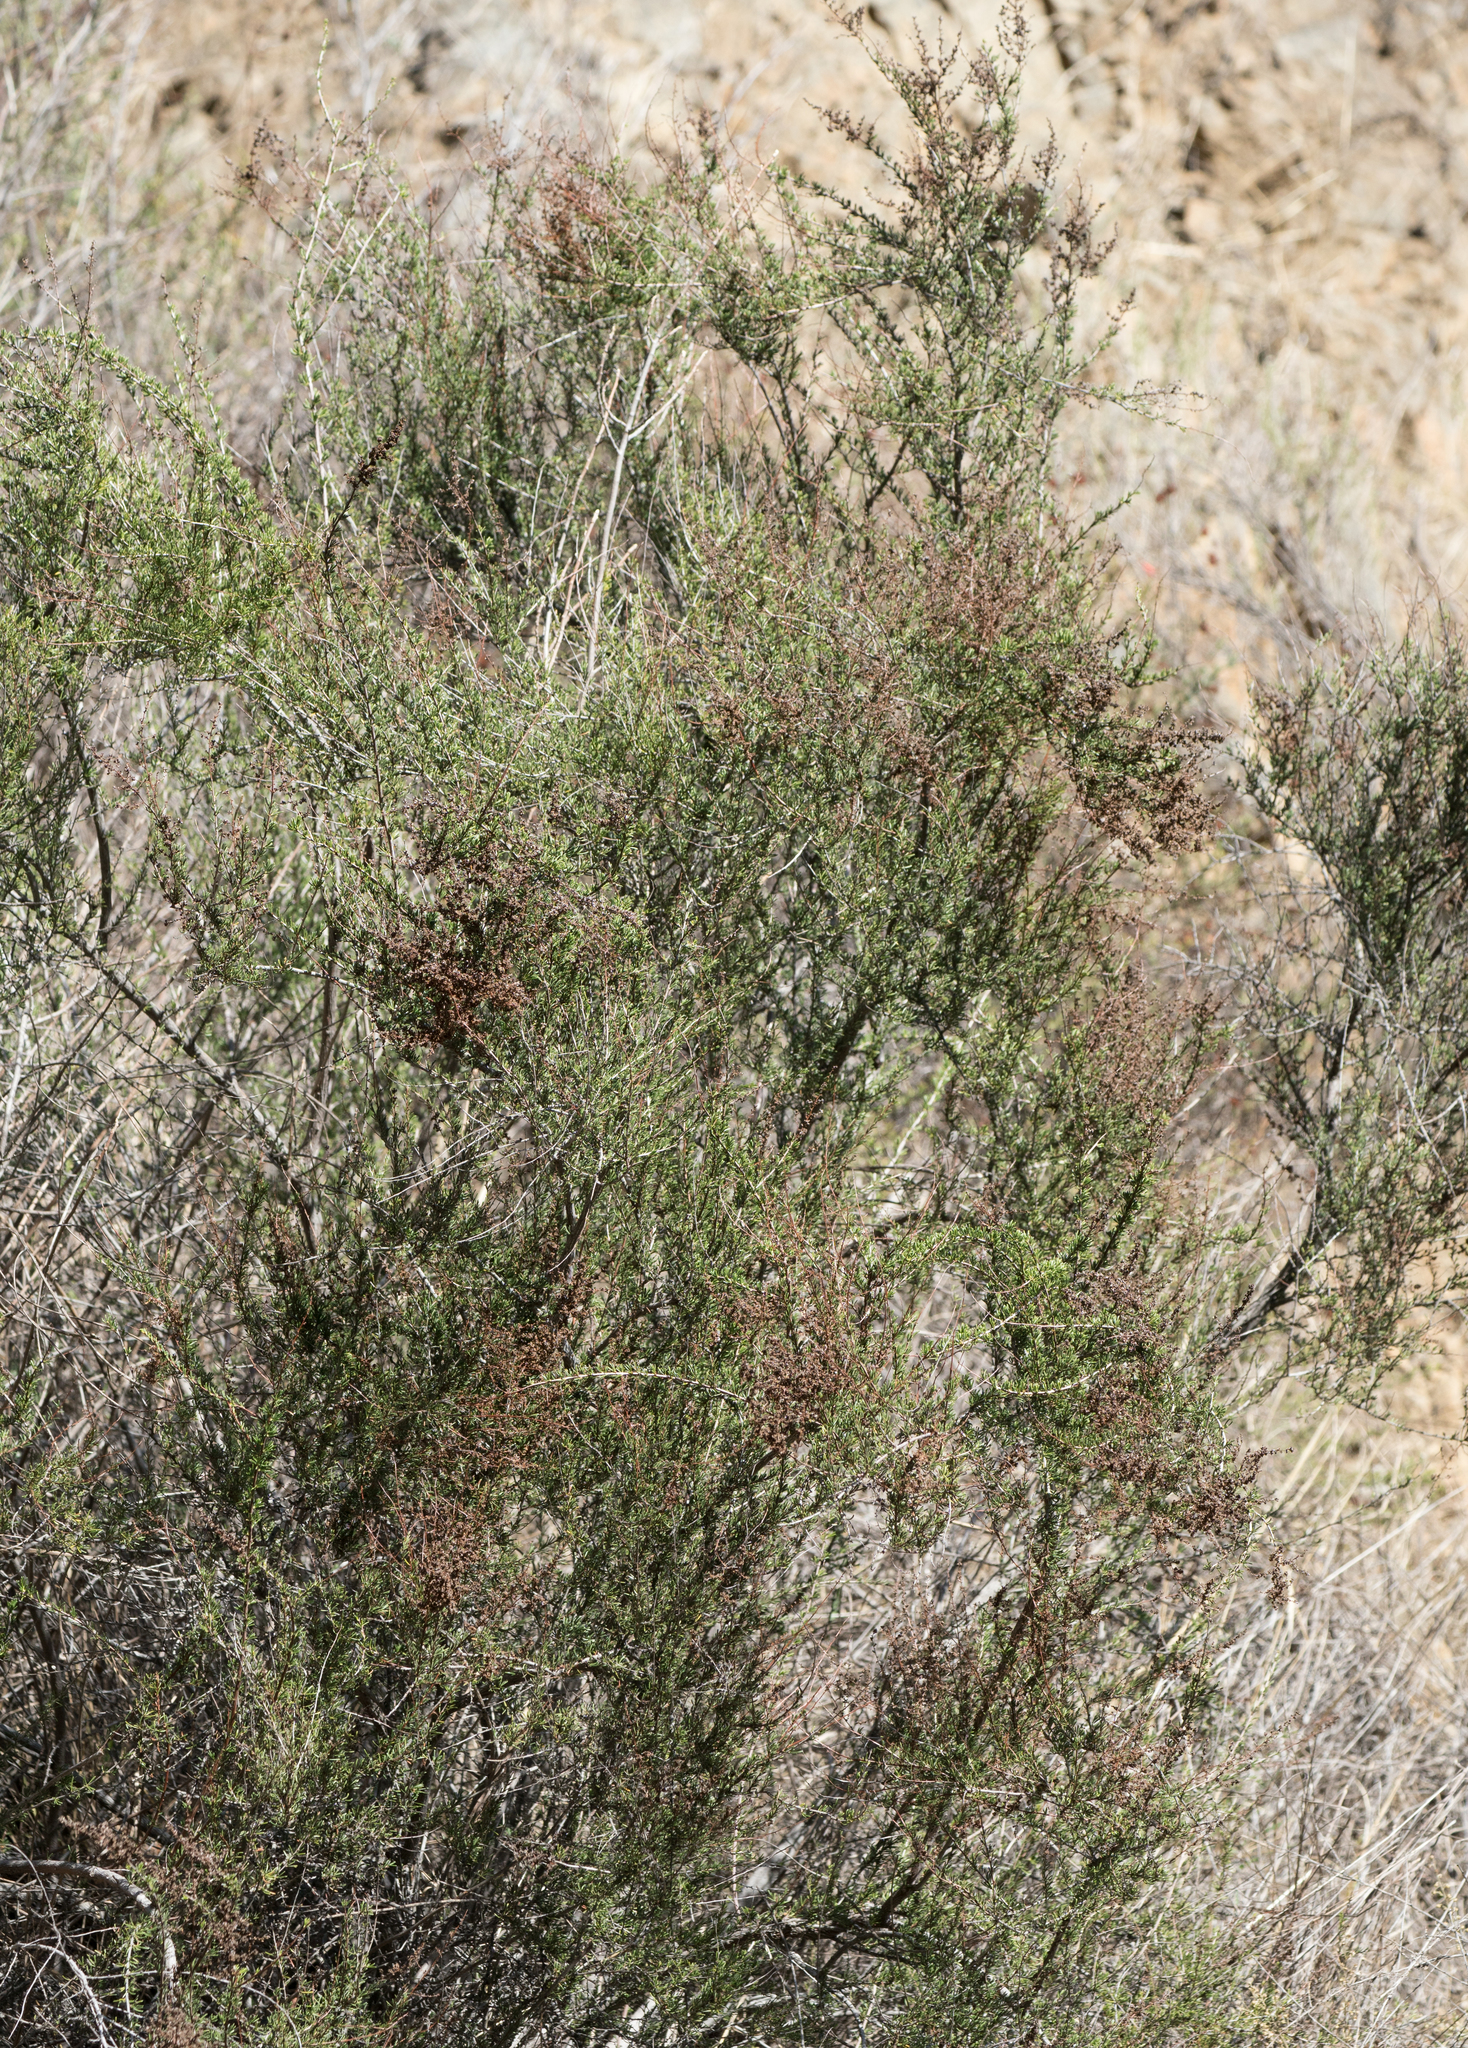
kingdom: Plantae
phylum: Tracheophyta
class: Magnoliopsida
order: Rosales
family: Rosaceae
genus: Adenostoma
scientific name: Adenostoma fasciculatum
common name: Chamise
